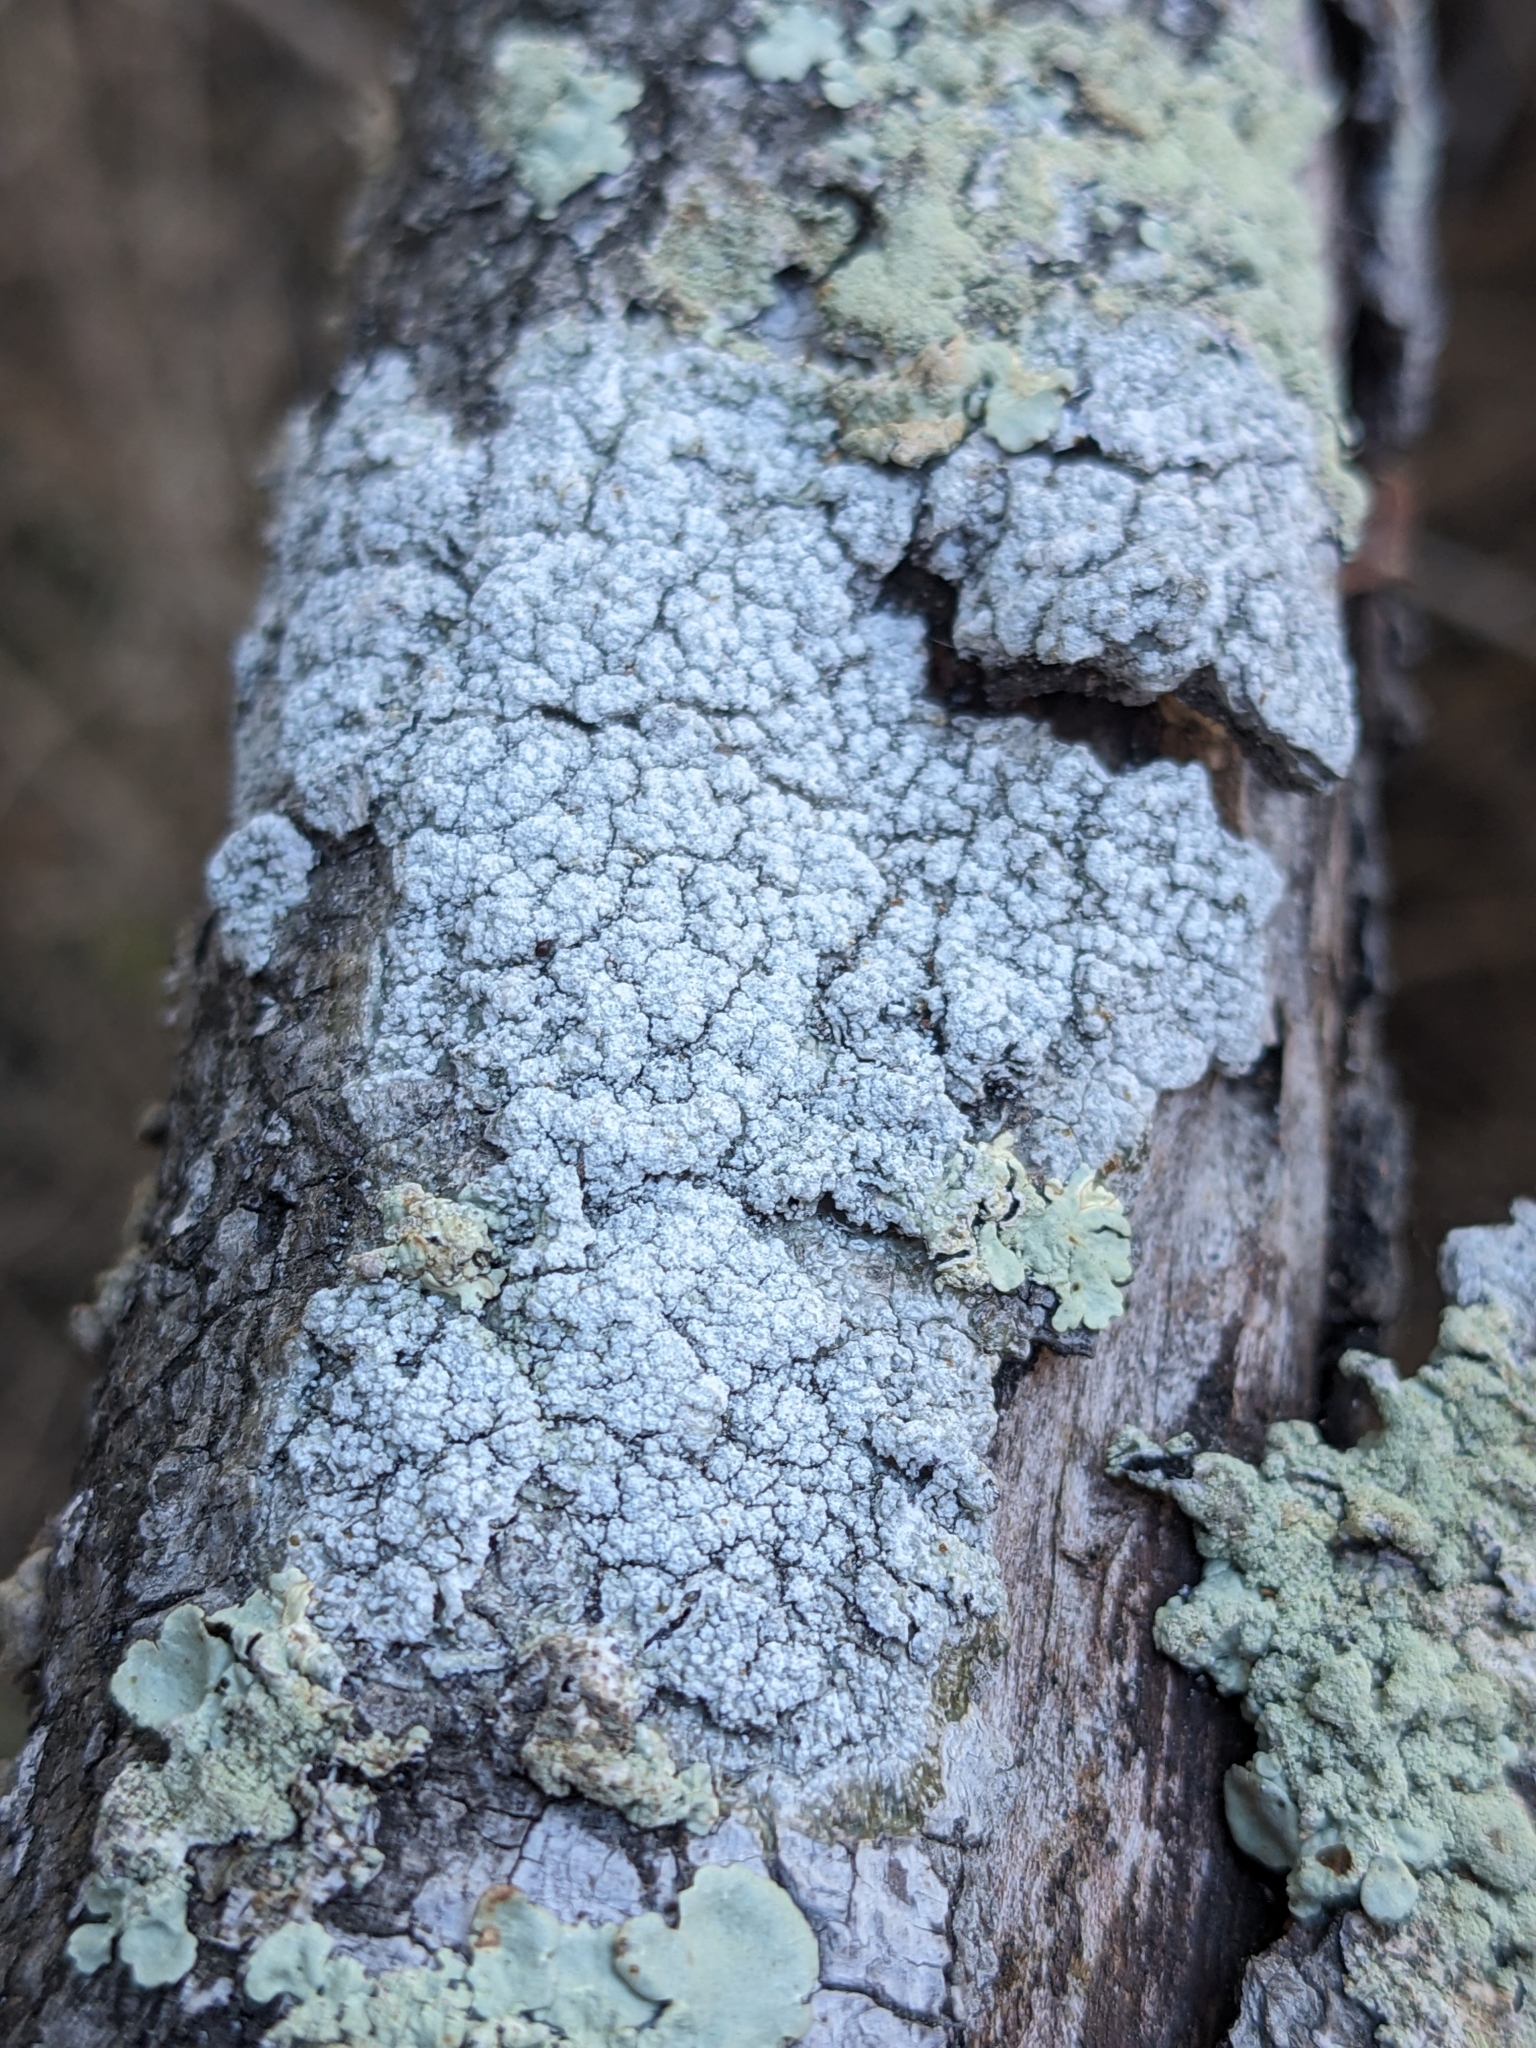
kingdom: Fungi
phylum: Ascomycota
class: Lecanoromycetes
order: Pertusariales
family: Pertusariaceae
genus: Lepra
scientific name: Lepra amara
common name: Bitter wart lichen
